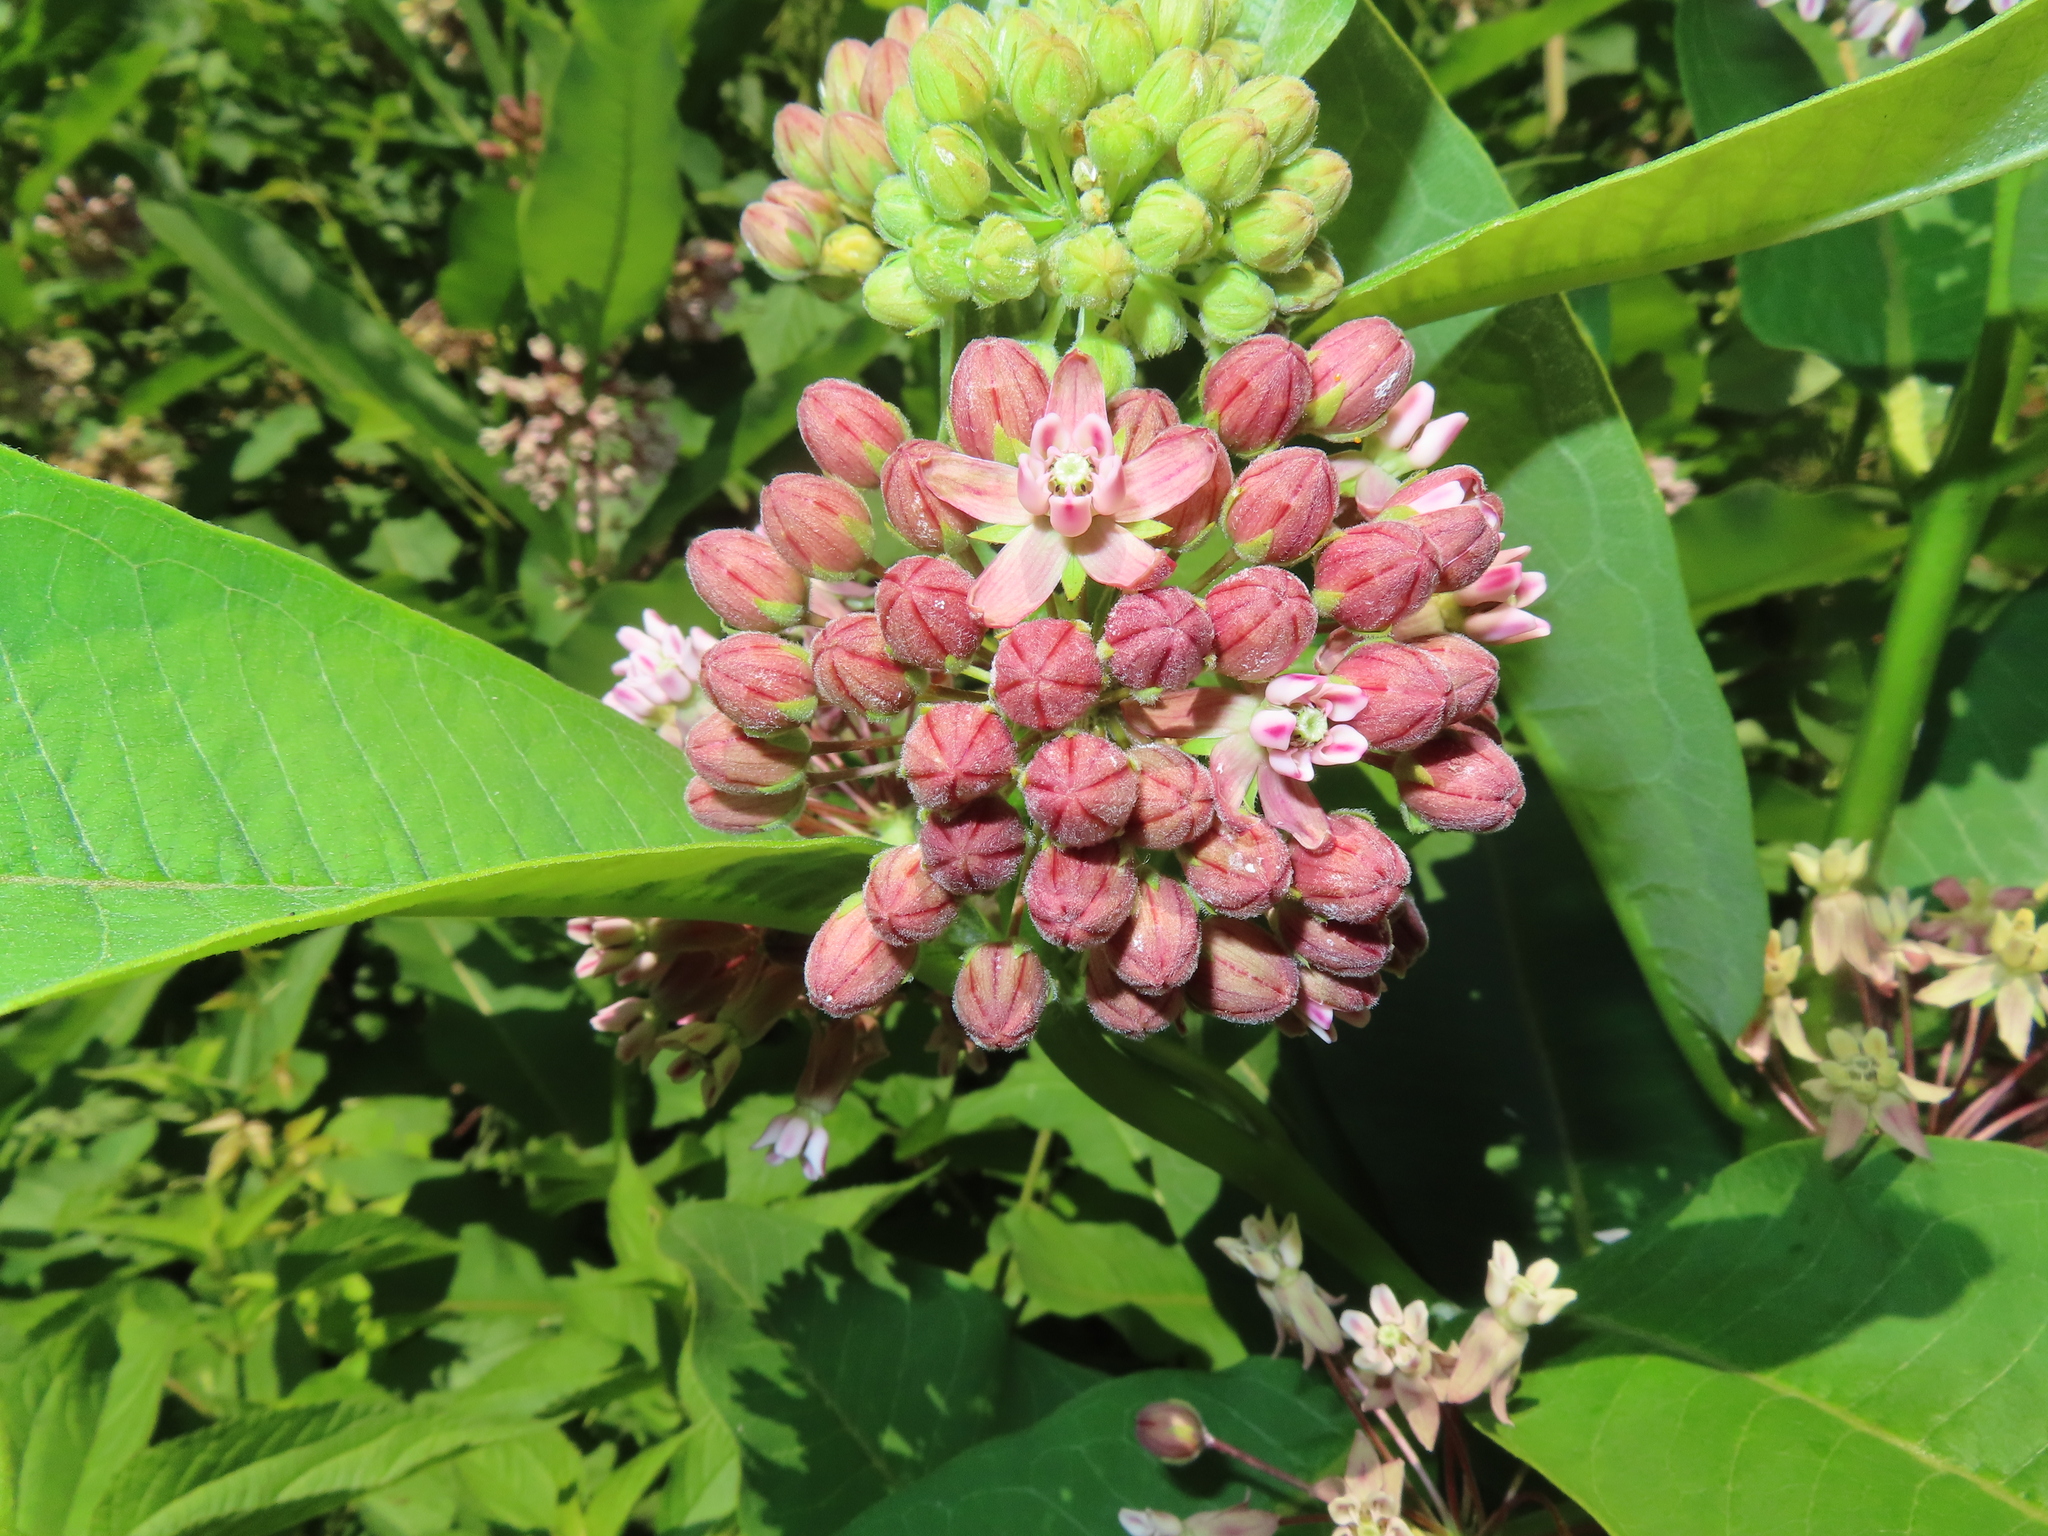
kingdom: Plantae
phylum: Tracheophyta
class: Magnoliopsida
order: Gentianales
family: Apocynaceae
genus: Asclepias
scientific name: Asclepias syriaca
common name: Common milkweed
